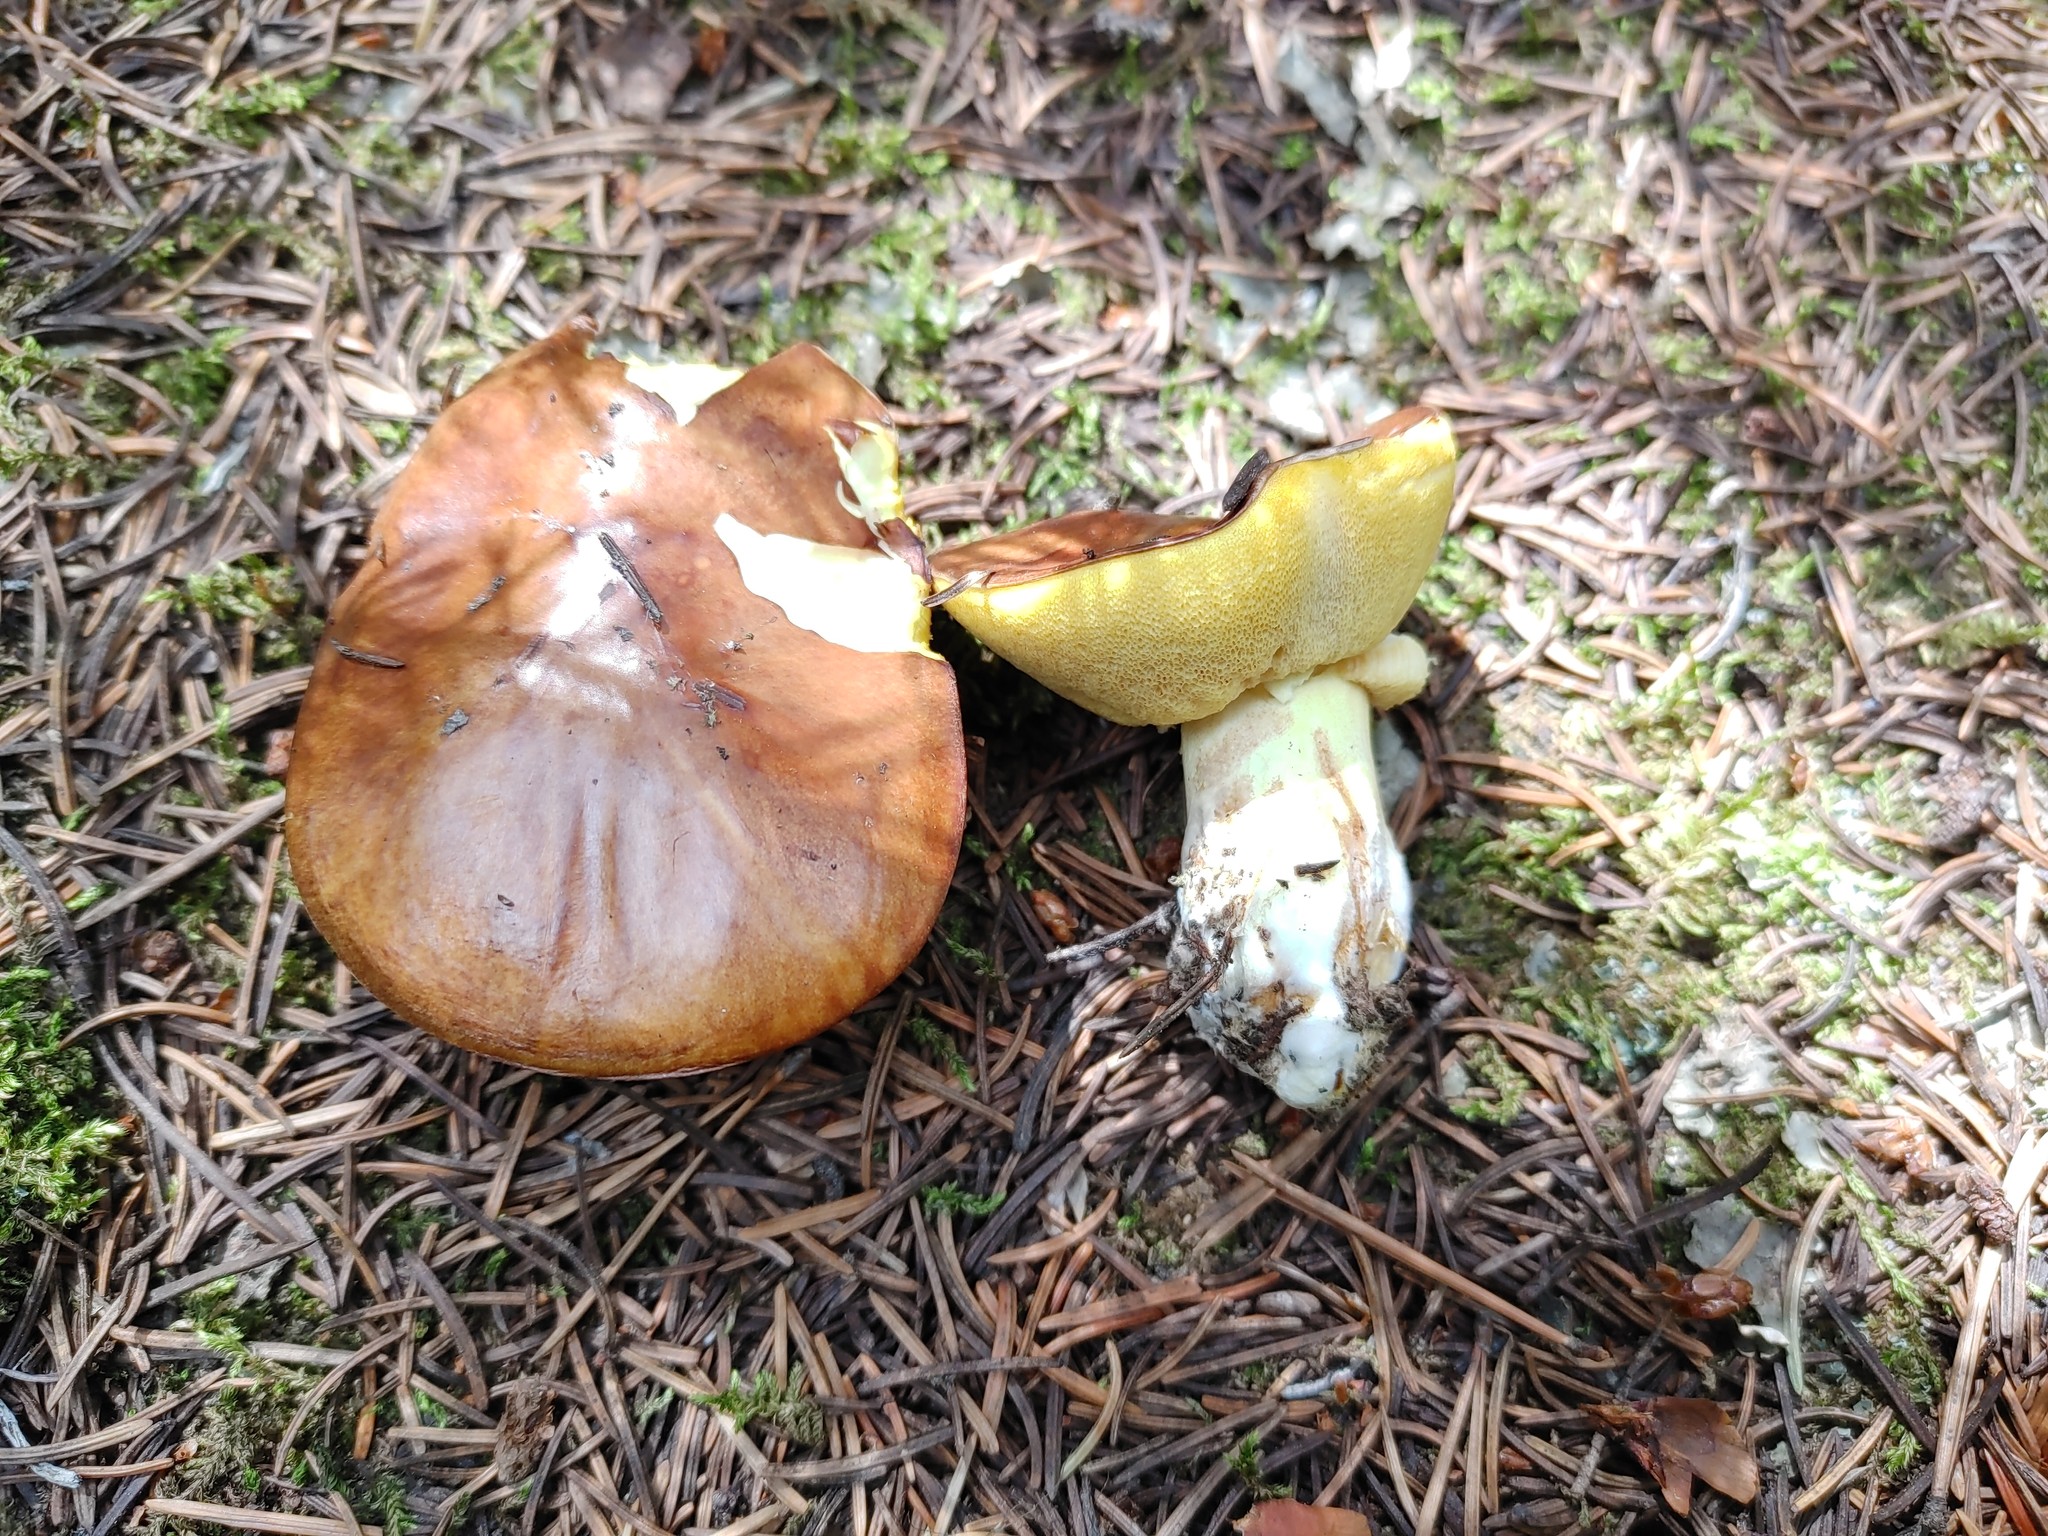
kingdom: Fungi
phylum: Basidiomycota
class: Agaricomycetes
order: Boletales
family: Suillaceae
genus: Suillus
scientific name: Suillus brevipes
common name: Short-stalked suillus
